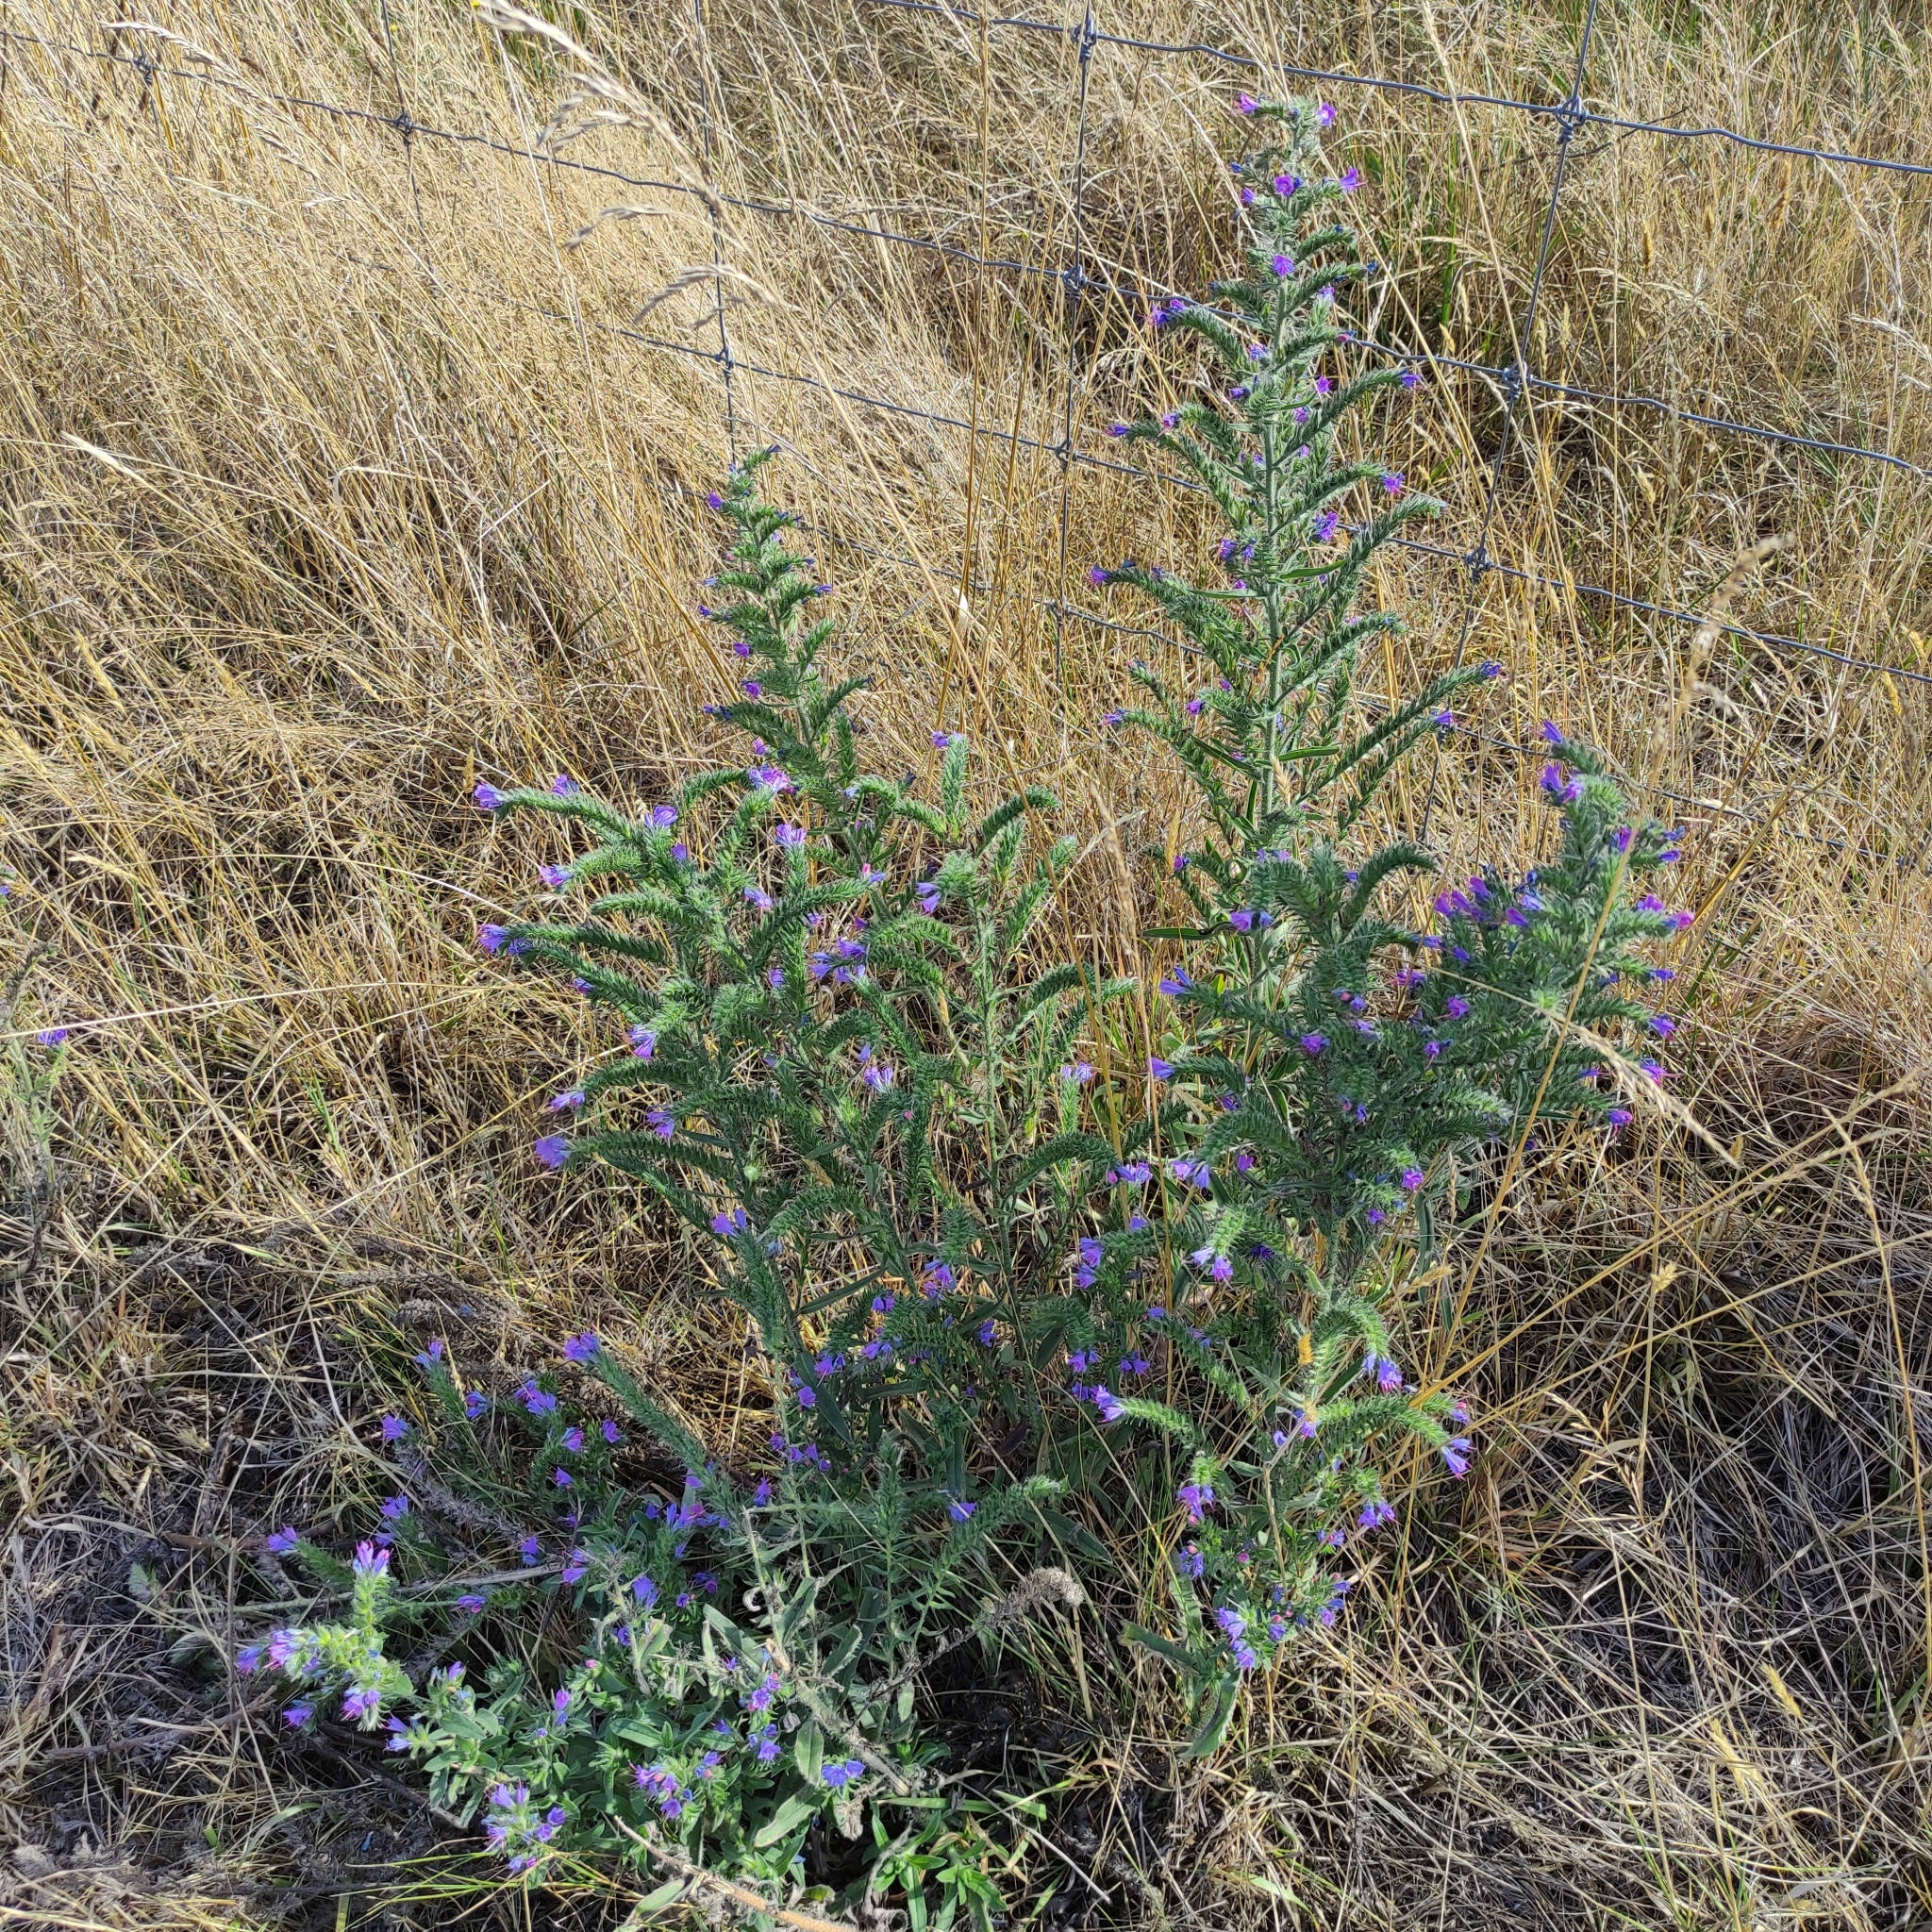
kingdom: Plantae
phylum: Tracheophyta
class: Magnoliopsida
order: Boraginales
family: Boraginaceae
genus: Echium
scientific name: Echium vulgare
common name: Common viper's bugloss
